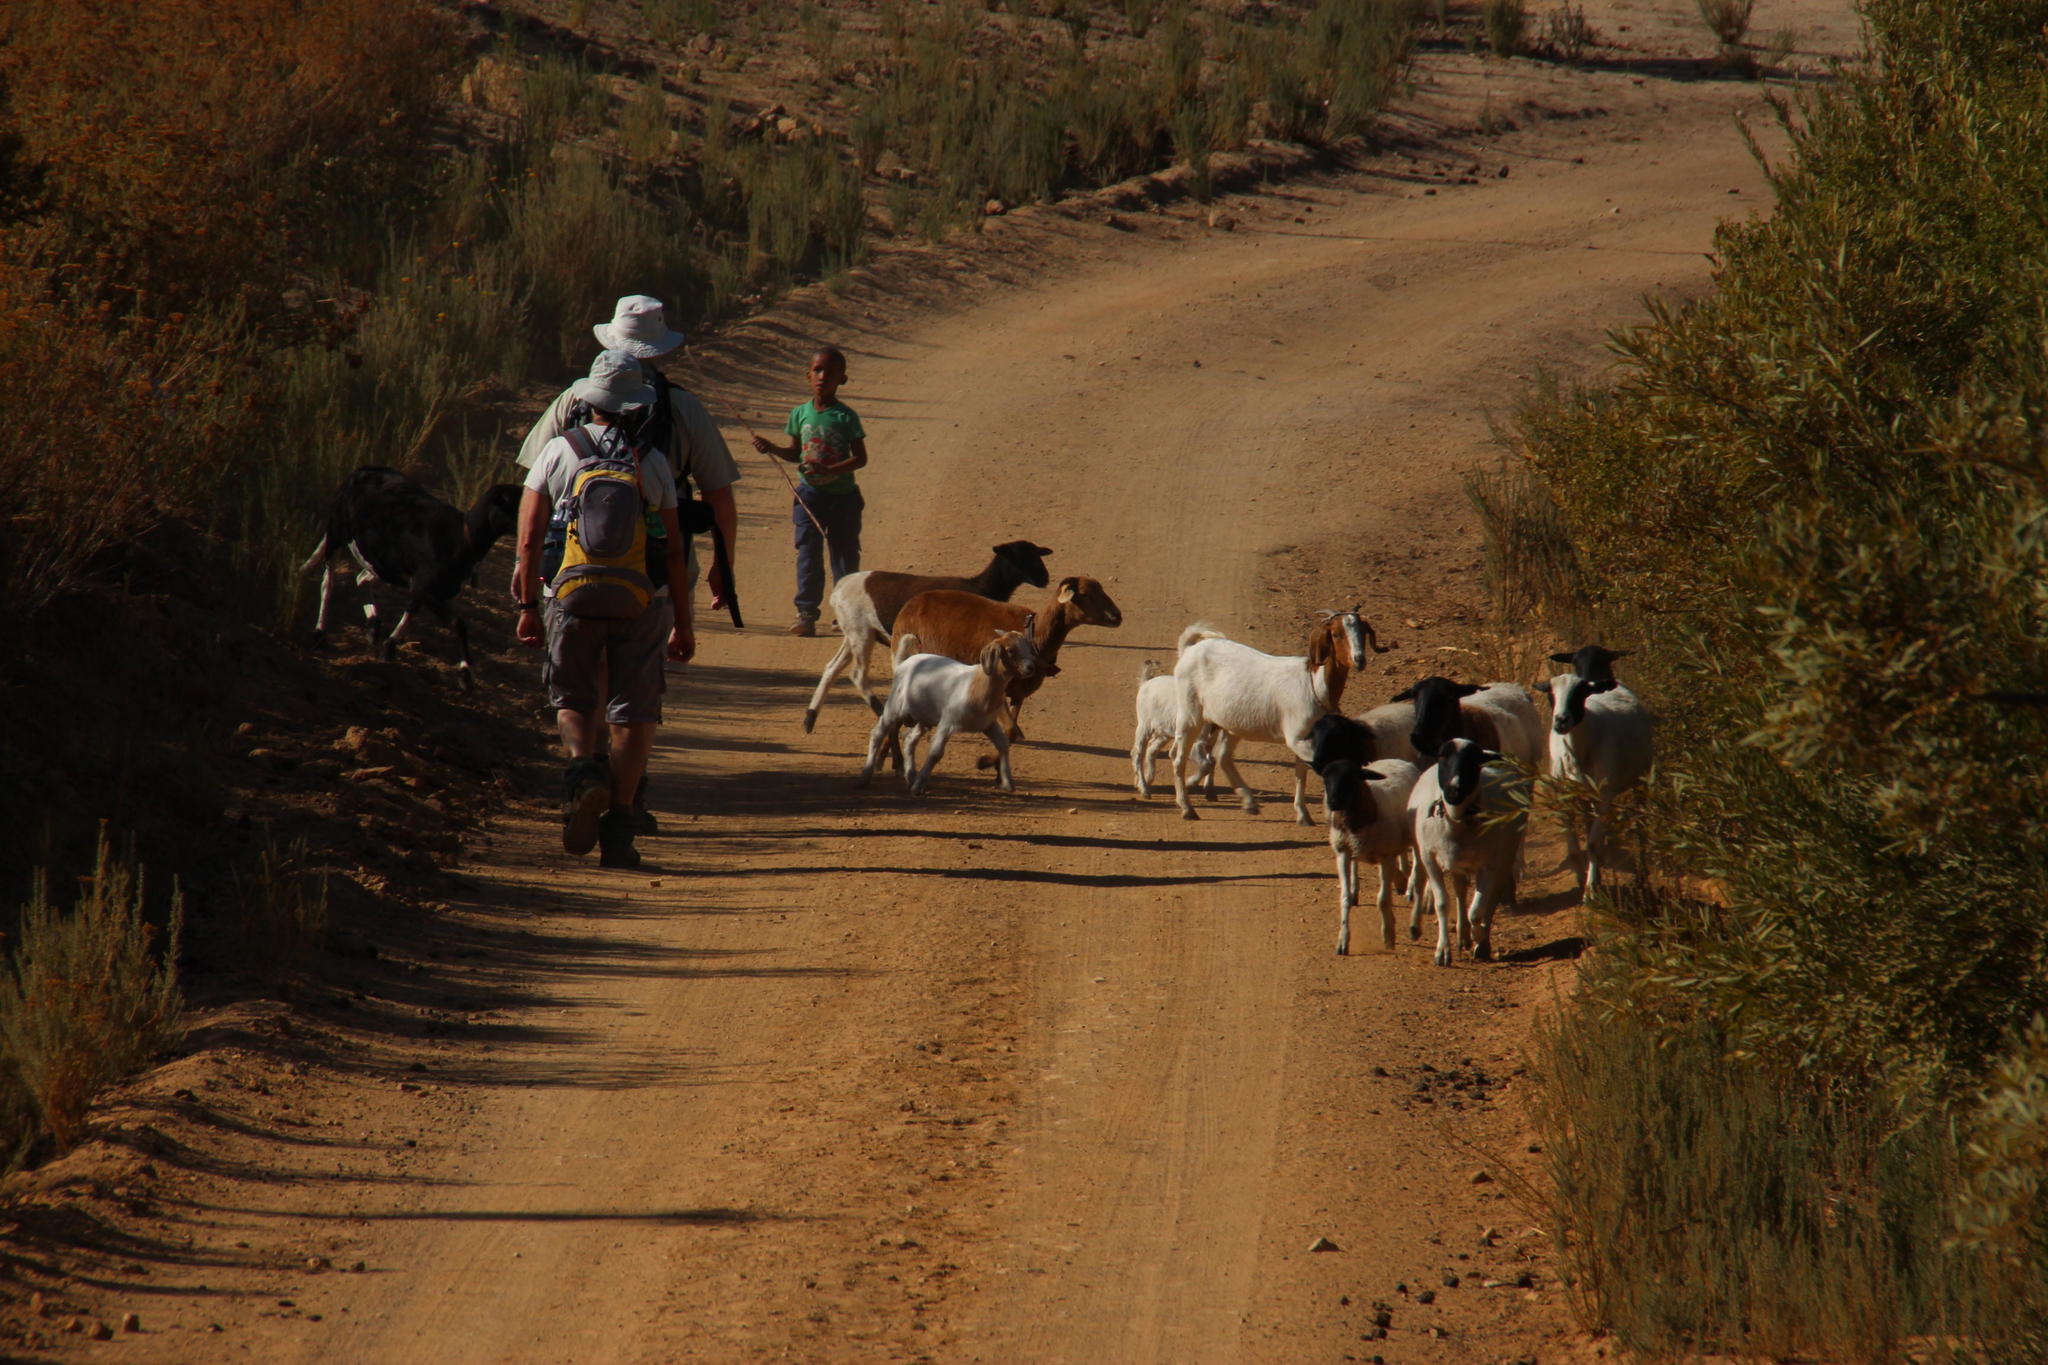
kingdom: Animalia
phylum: Chordata
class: Mammalia
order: Artiodactyla
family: Bovidae
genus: Capra
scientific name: Capra hircus
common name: Domestic goat
